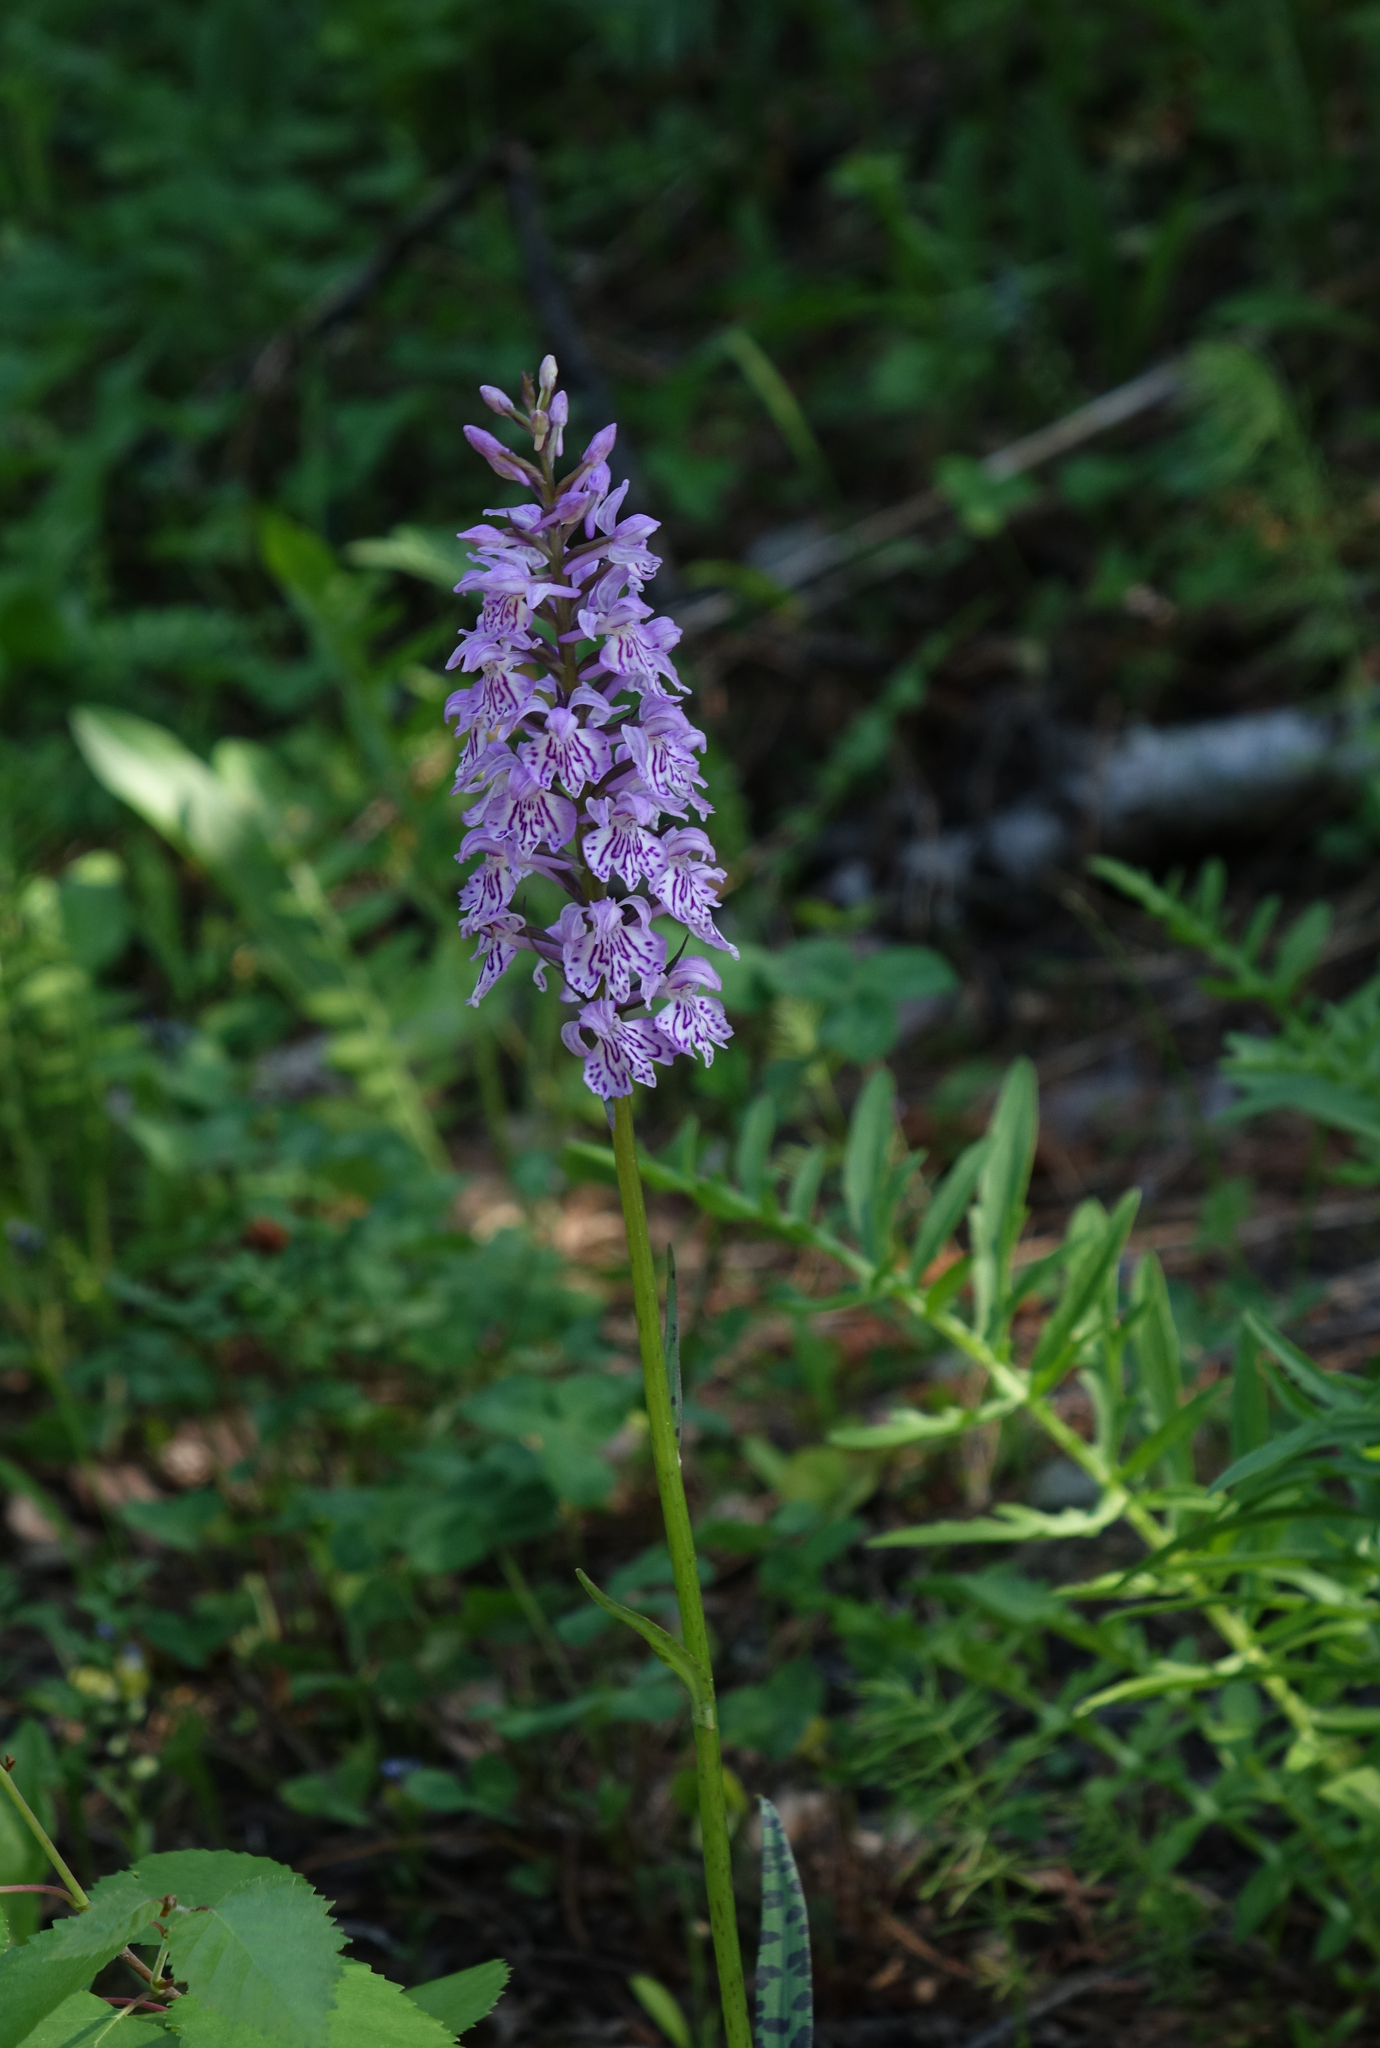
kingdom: Plantae
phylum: Tracheophyta
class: Liliopsida
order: Asparagales
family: Orchidaceae
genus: Dactylorhiza
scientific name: Dactylorhiza maculata
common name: Heath spotted-orchid
